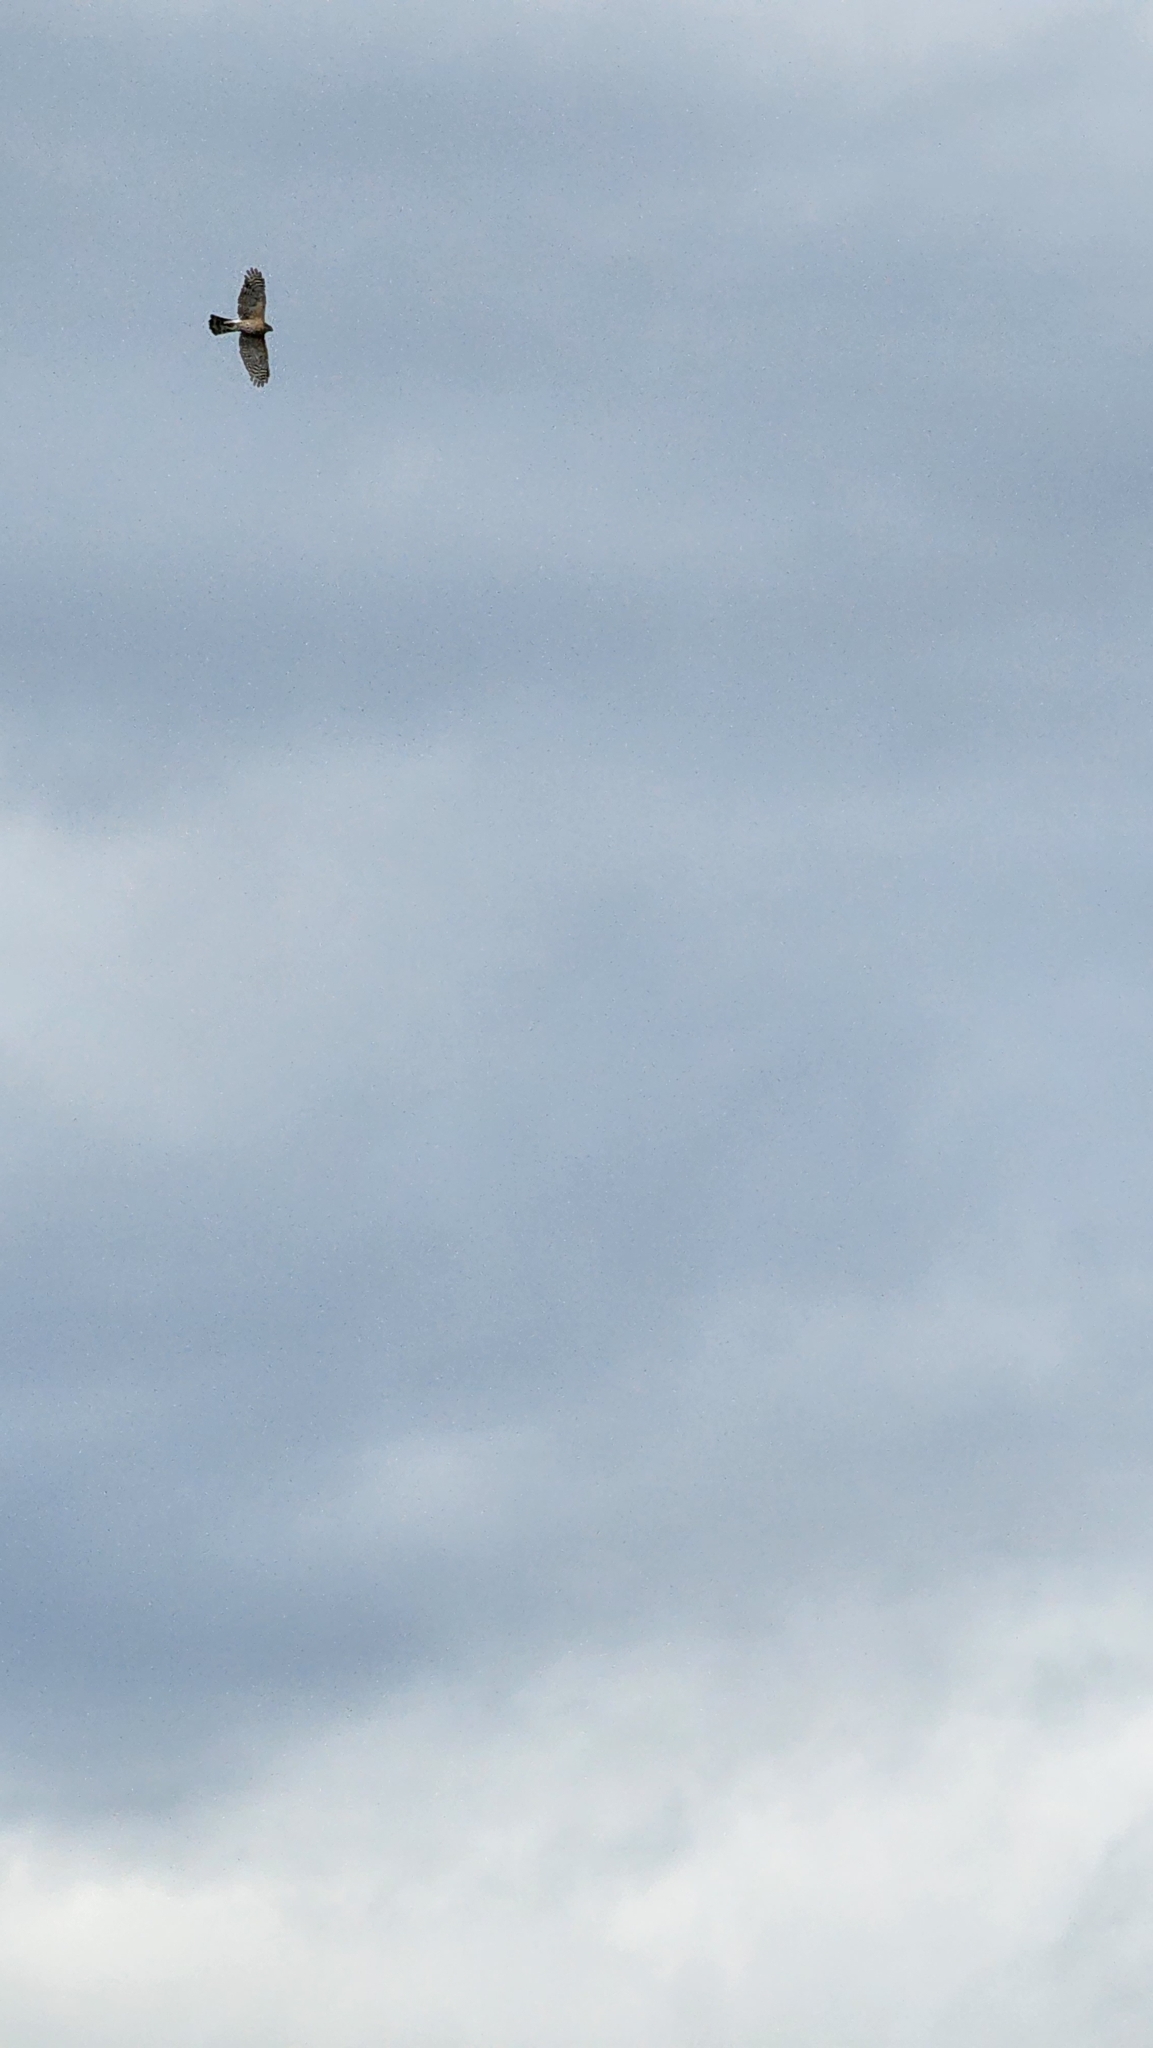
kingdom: Animalia
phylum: Chordata
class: Aves
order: Accipitriformes
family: Accipitridae
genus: Accipiter
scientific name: Accipiter cooperii
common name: Cooper's hawk
